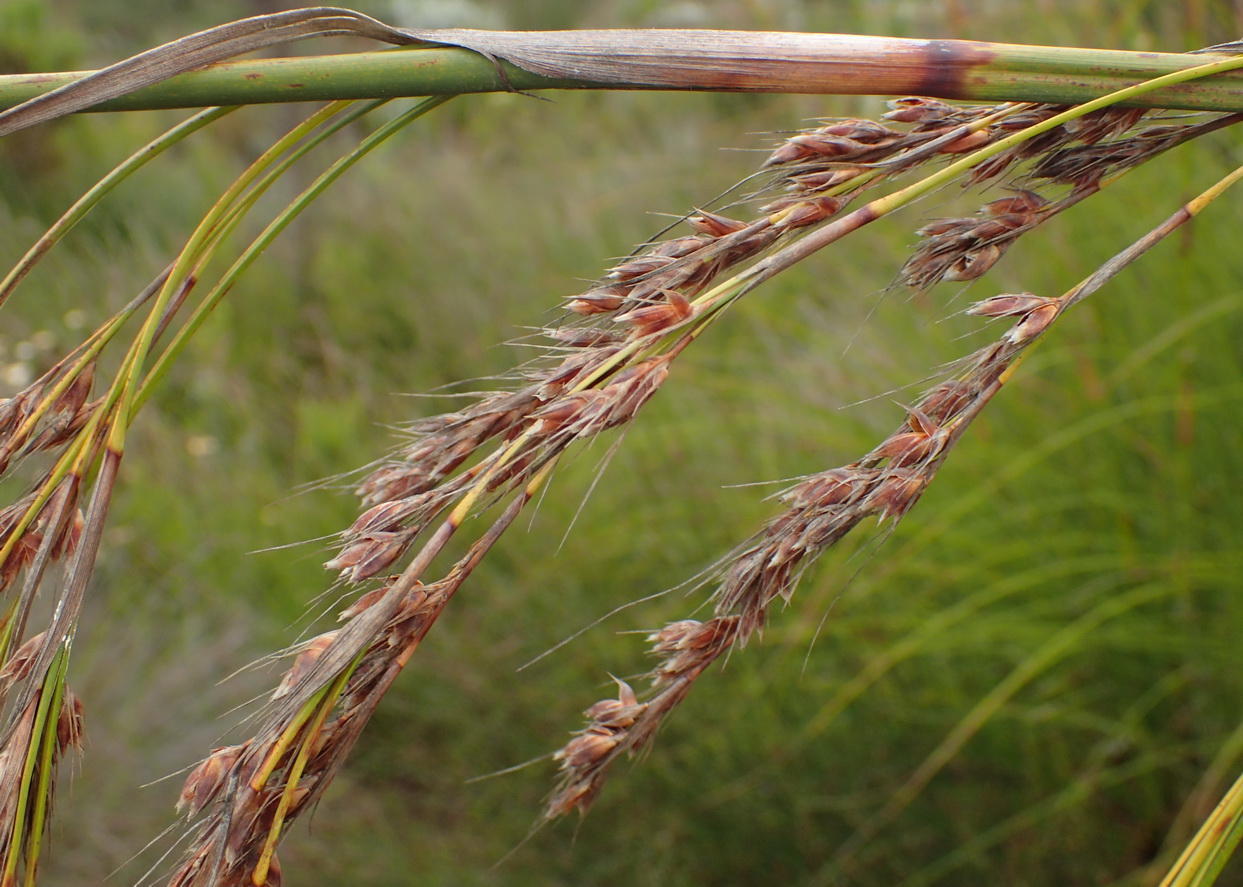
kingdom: Plantae
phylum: Tracheophyta
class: Liliopsida
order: Poales
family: Cyperaceae
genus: Tetraria
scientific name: Tetraria involucrata
